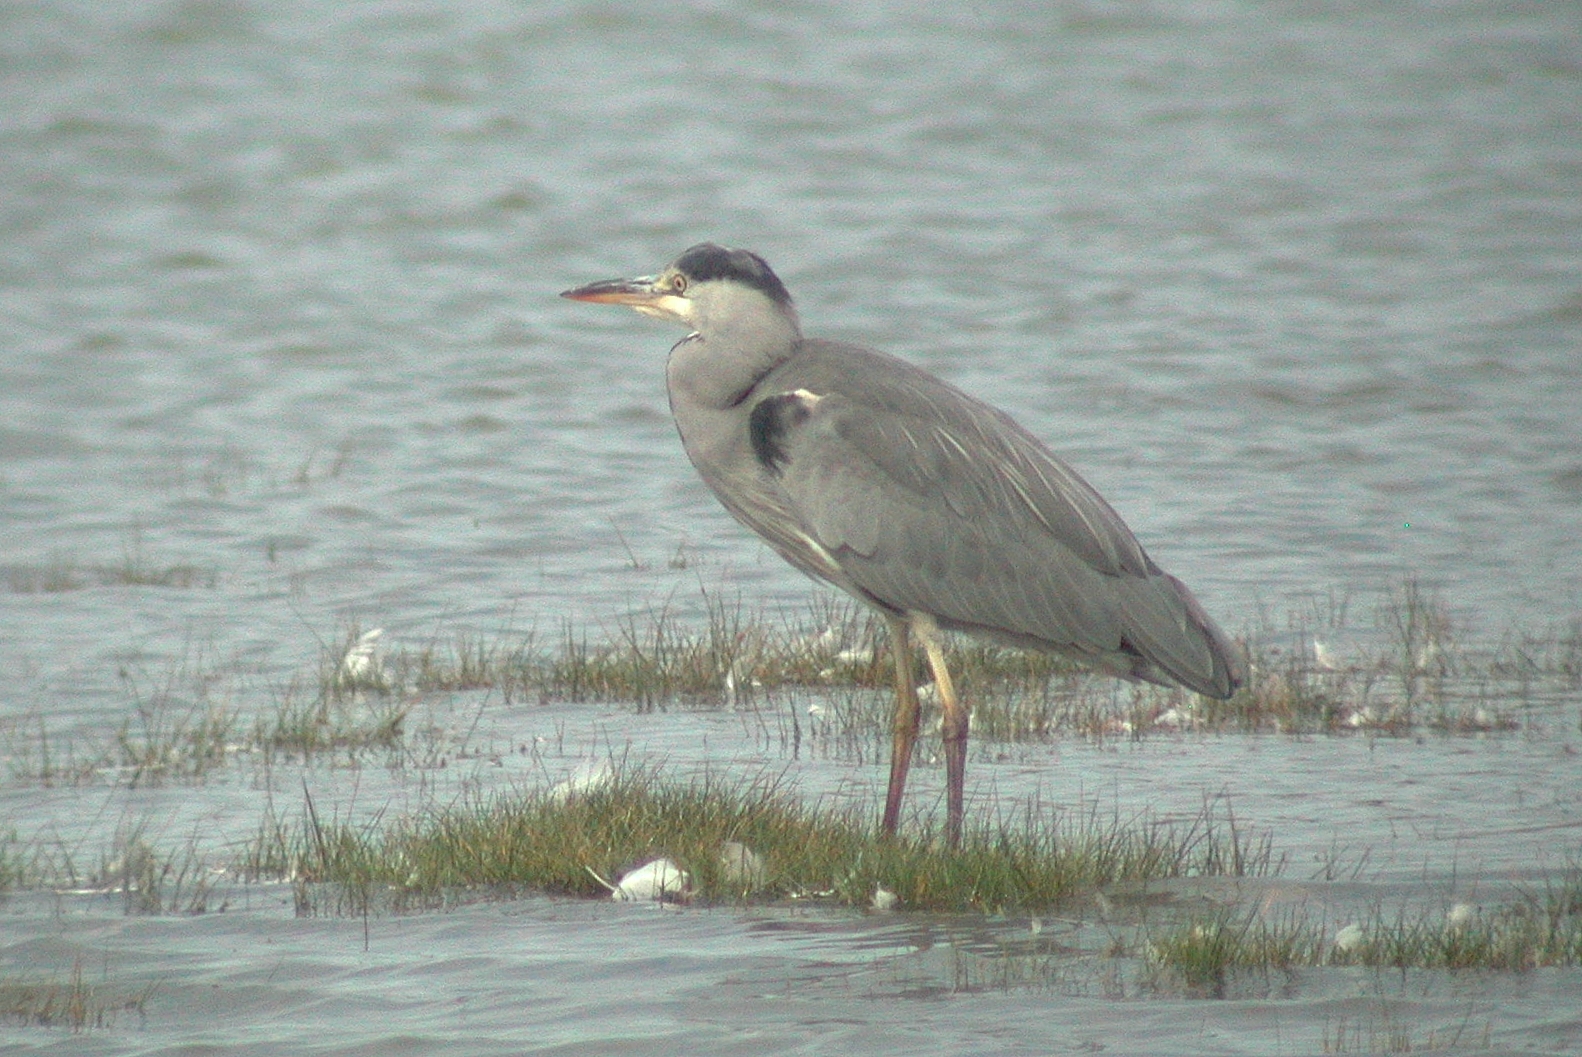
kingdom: Animalia
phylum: Chordata
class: Aves
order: Pelecaniformes
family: Ardeidae
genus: Ardea
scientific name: Ardea cinerea
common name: Grey heron
